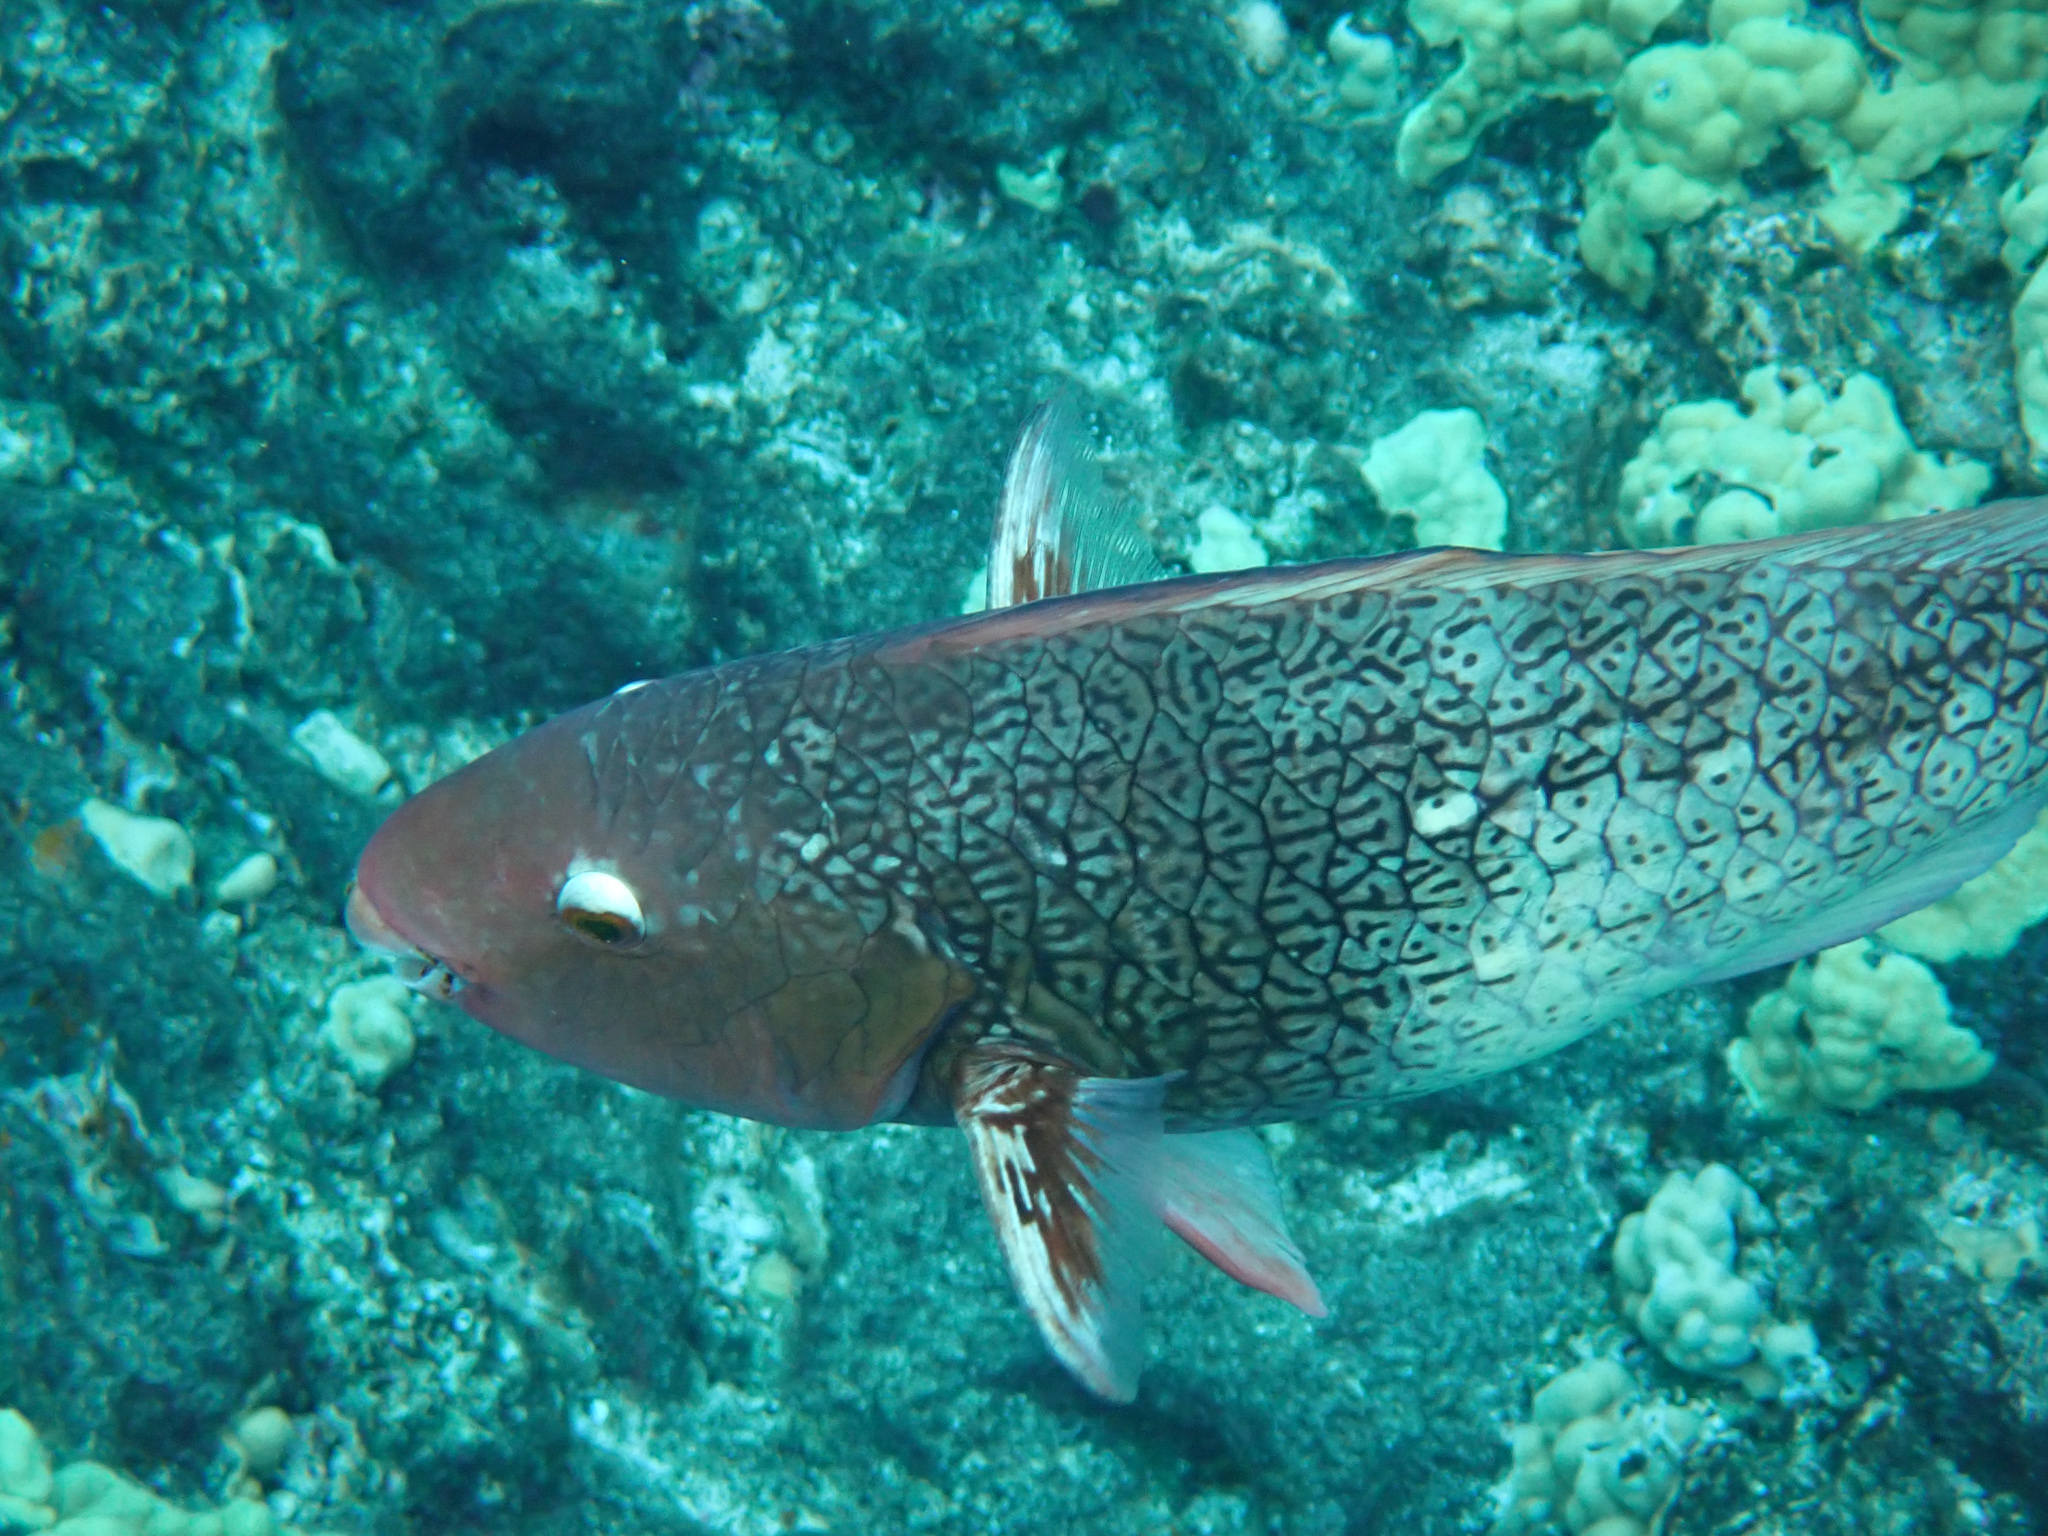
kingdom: Animalia
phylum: Chordata
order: Perciformes
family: Scaridae
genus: Scarus
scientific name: Scarus rubroviolaceus
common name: Ember parrotfish
